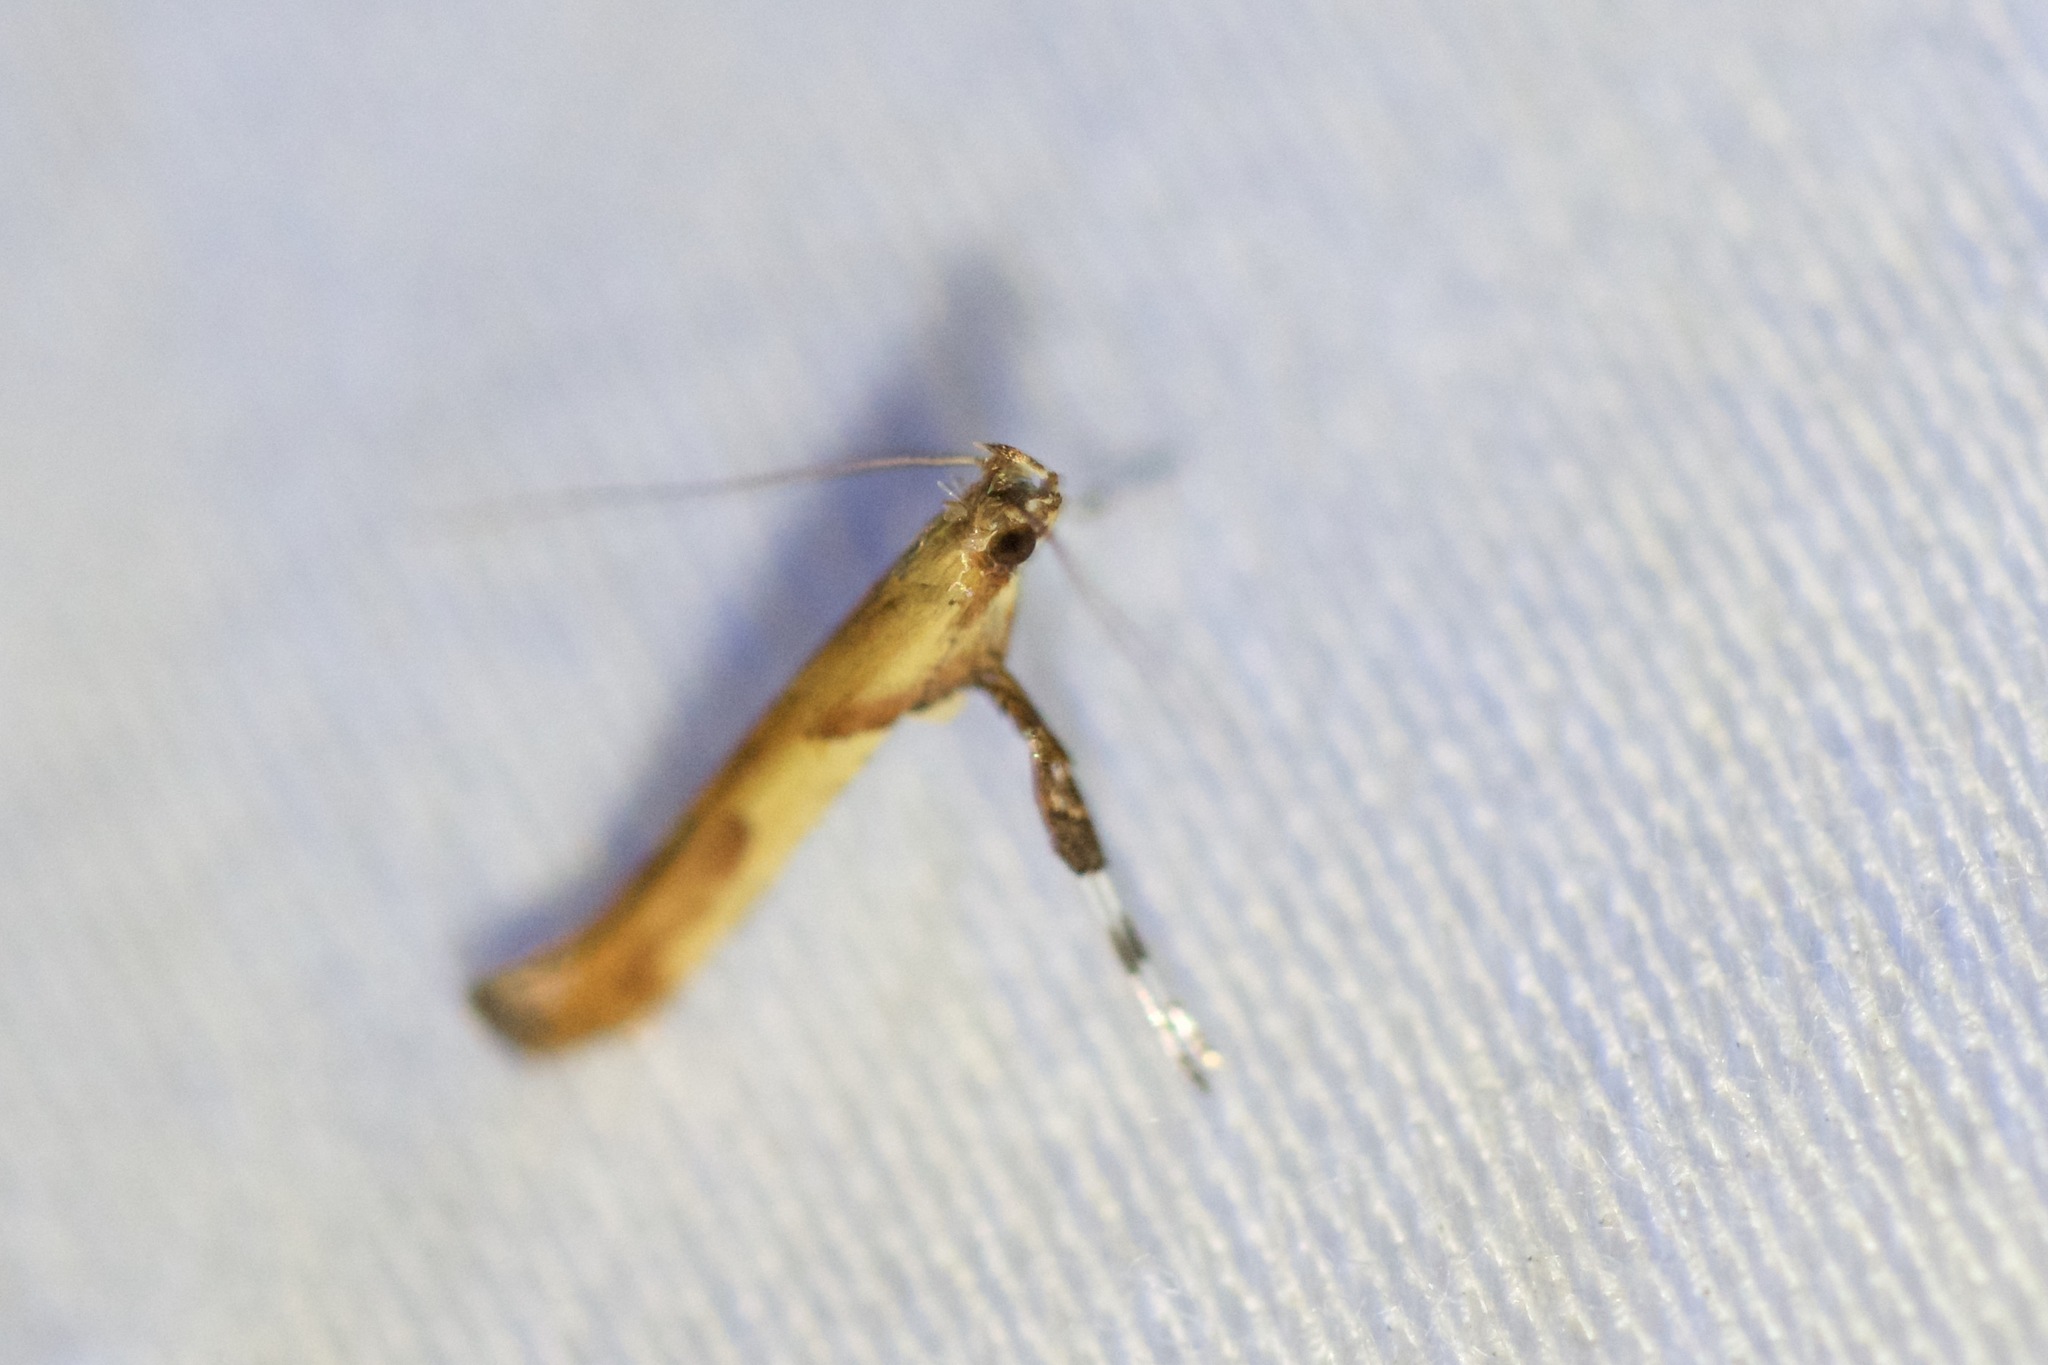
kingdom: Animalia
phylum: Arthropoda
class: Insecta
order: Lepidoptera
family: Gracillariidae
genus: Caloptilia
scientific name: Caloptilia negundella
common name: Leafminer
